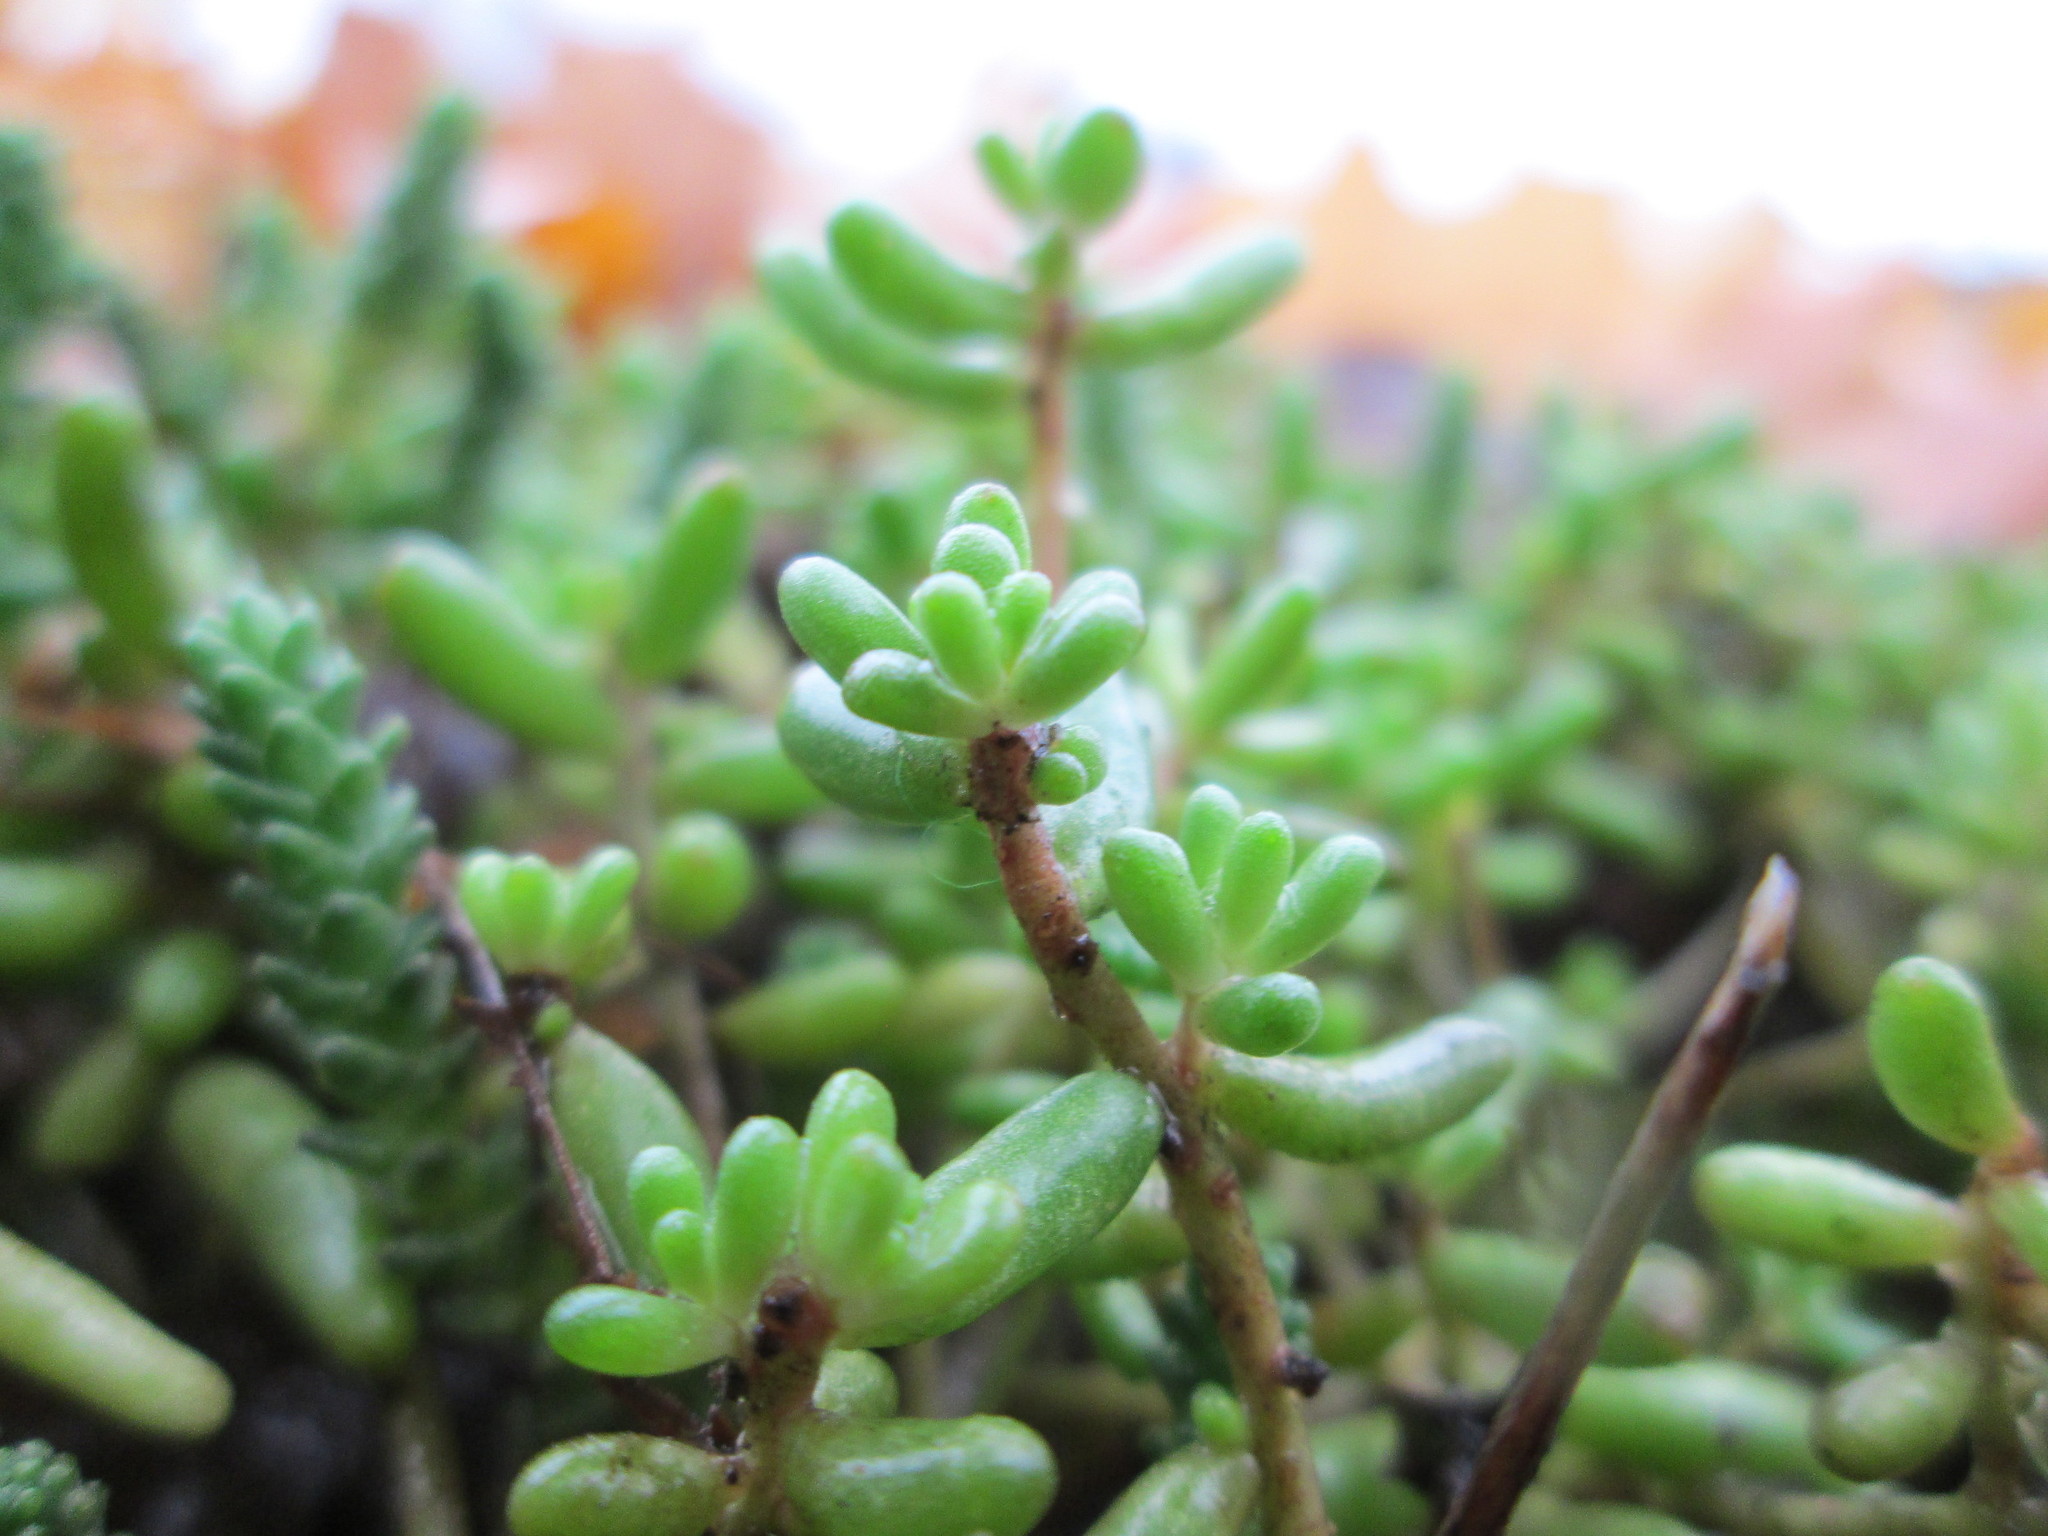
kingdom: Plantae
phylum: Tracheophyta
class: Magnoliopsida
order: Saxifragales
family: Crassulaceae
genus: Sedum
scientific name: Sedum album
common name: White stonecrop
